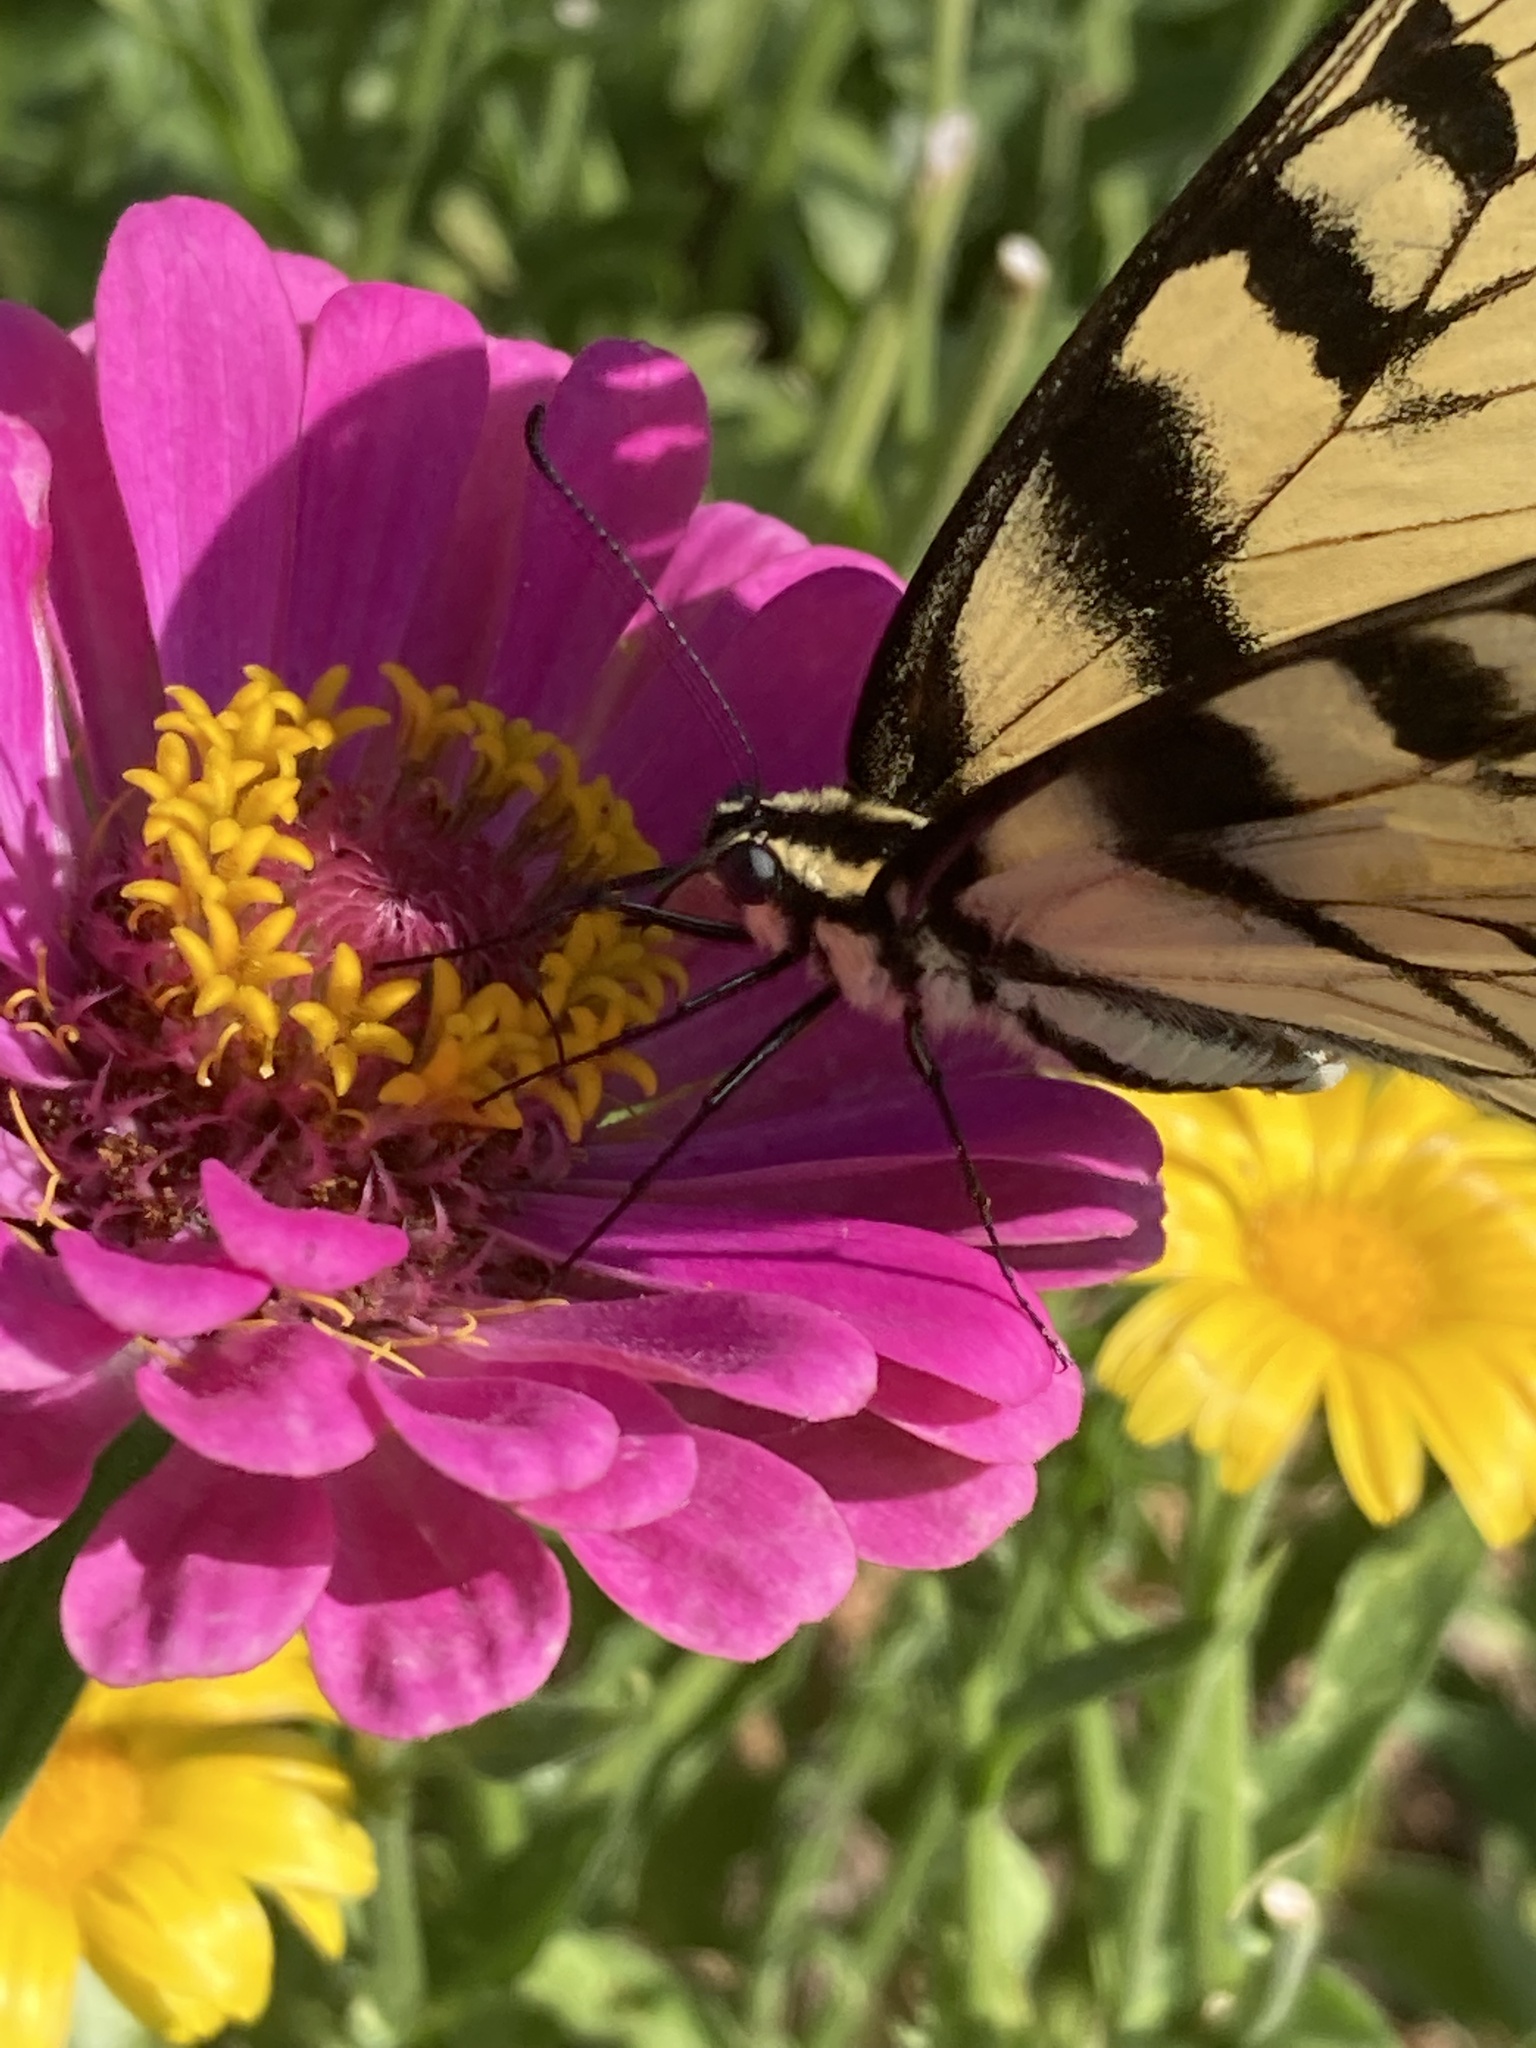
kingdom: Animalia
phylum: Arthropoda
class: Insecta
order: Lepidoptera
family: Papilionidae
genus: Papilio
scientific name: Papilio glaucus
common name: Tiger swallowtail
